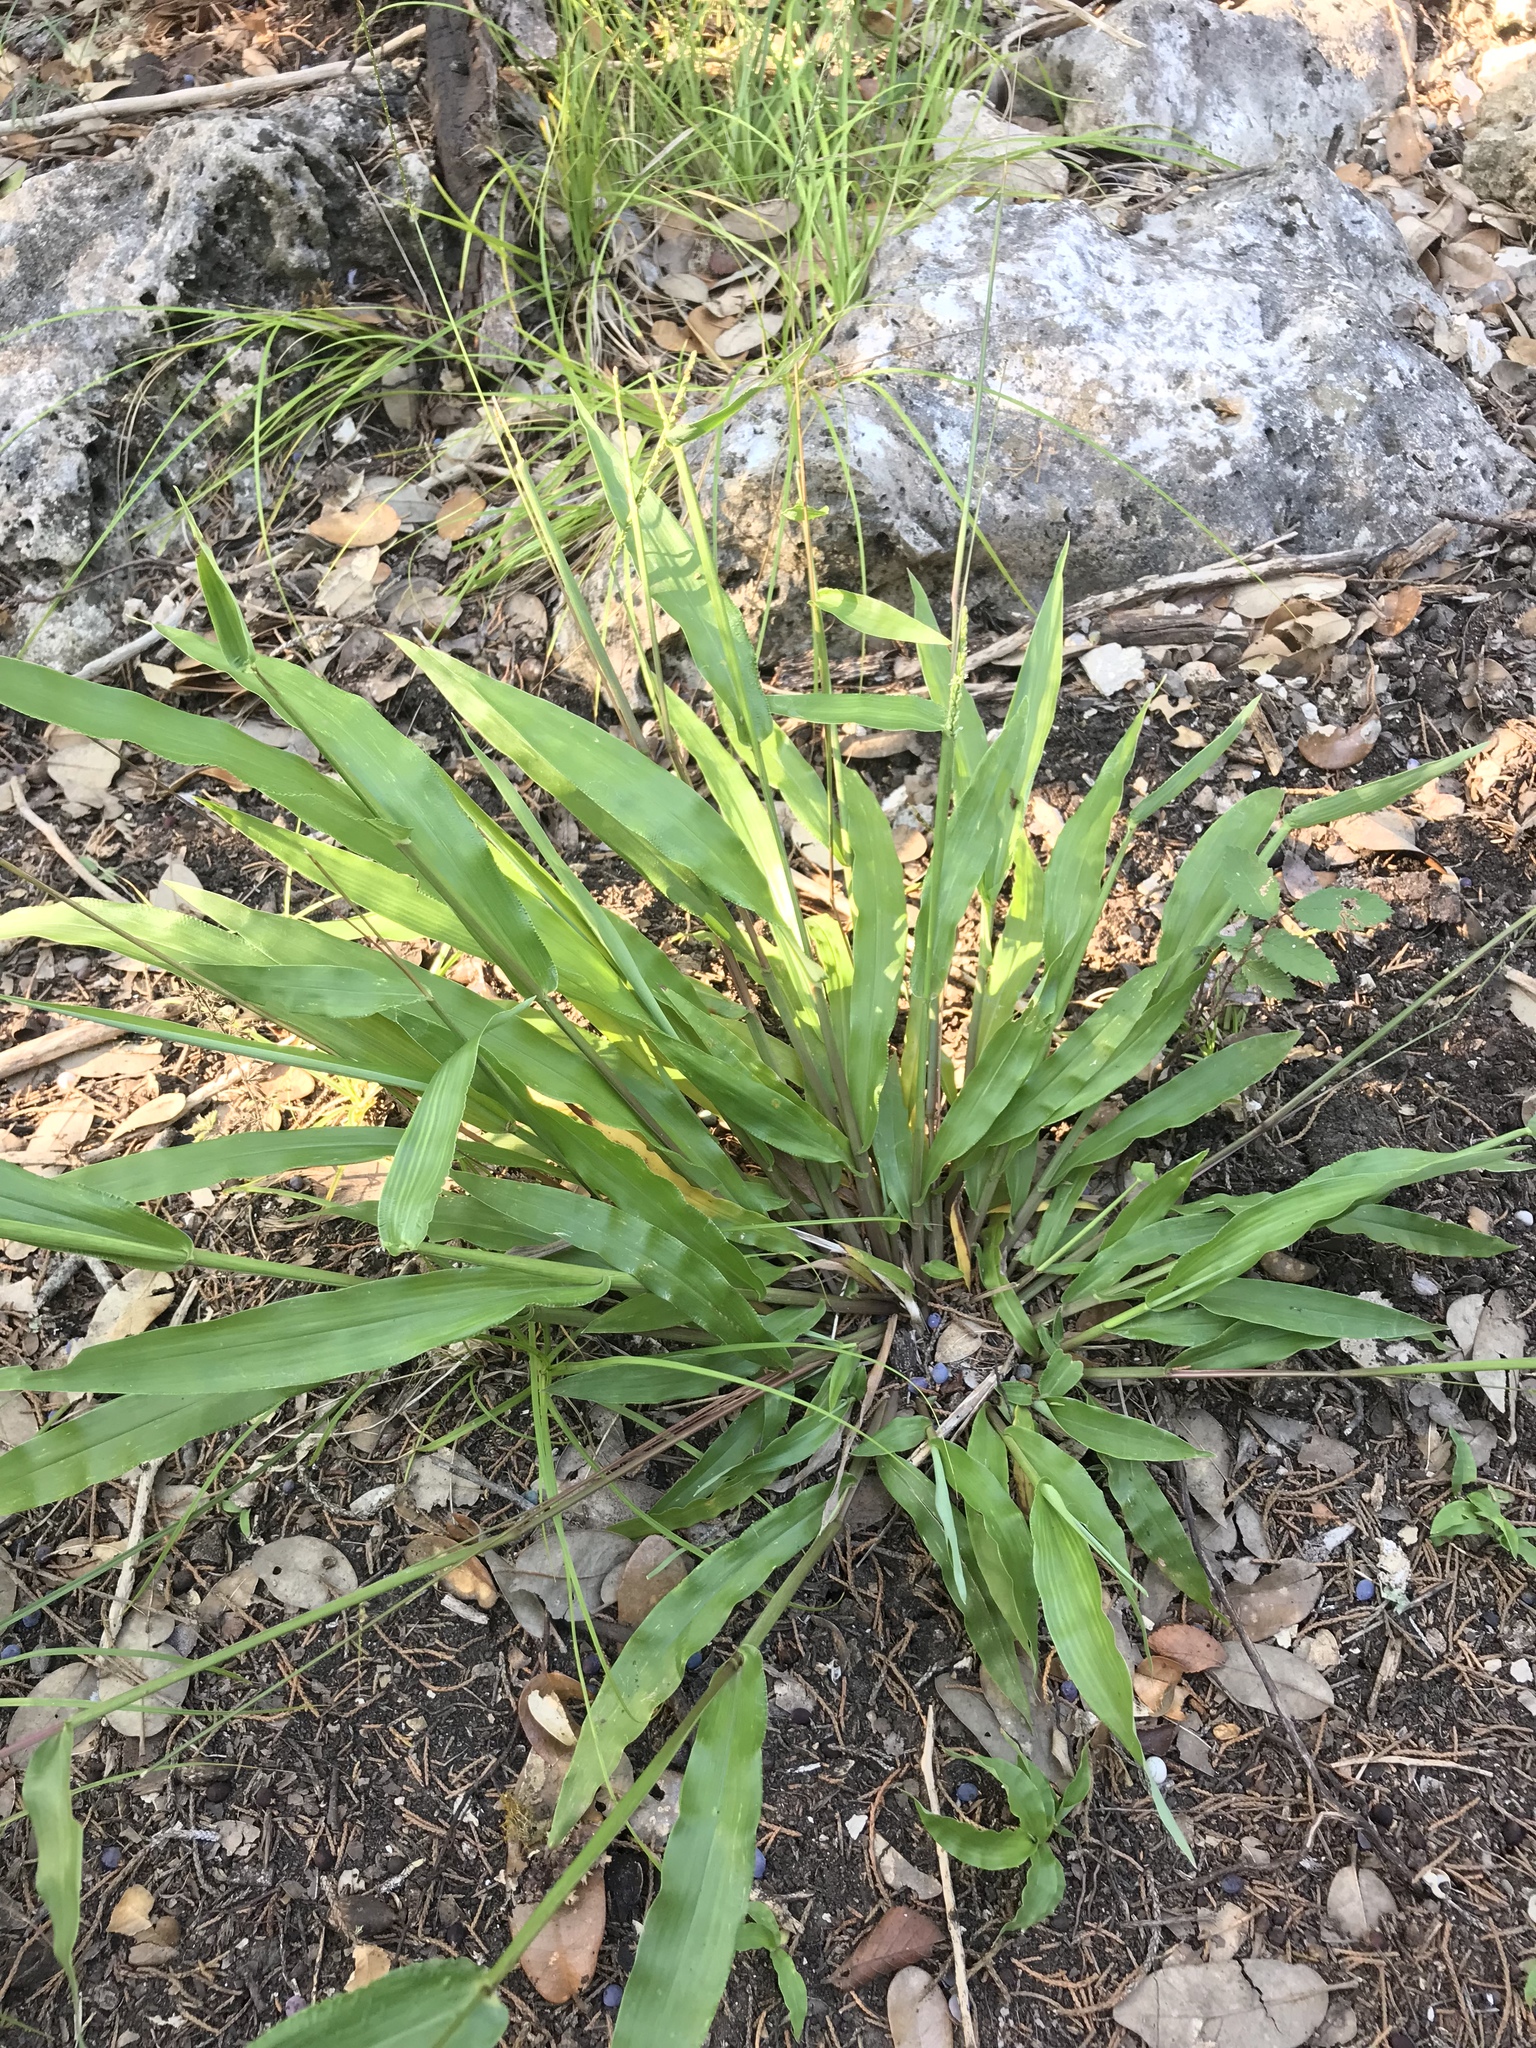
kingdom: Plantae
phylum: Tracheophyta
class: Liliopsida
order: Poales
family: Poaceae
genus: Paspalum
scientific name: Paspalum langei
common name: Rusty-seed paspalum
